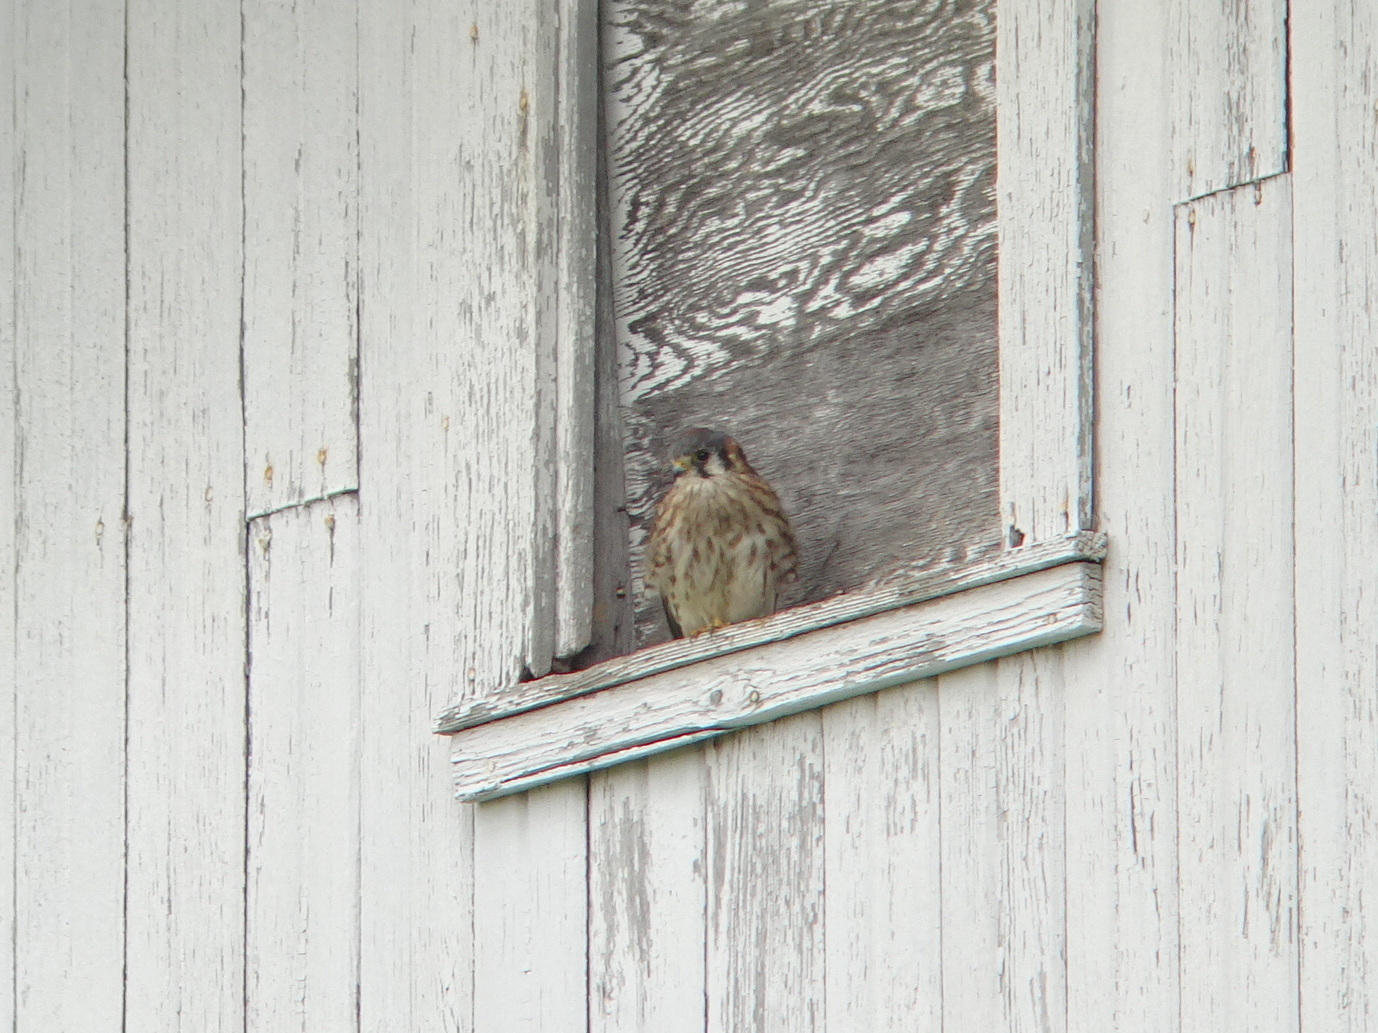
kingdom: Animalia
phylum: Chordata
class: Aves
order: Falconiformes
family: Falconidae
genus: Falco
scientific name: Falco sparverius
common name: American kestrel
